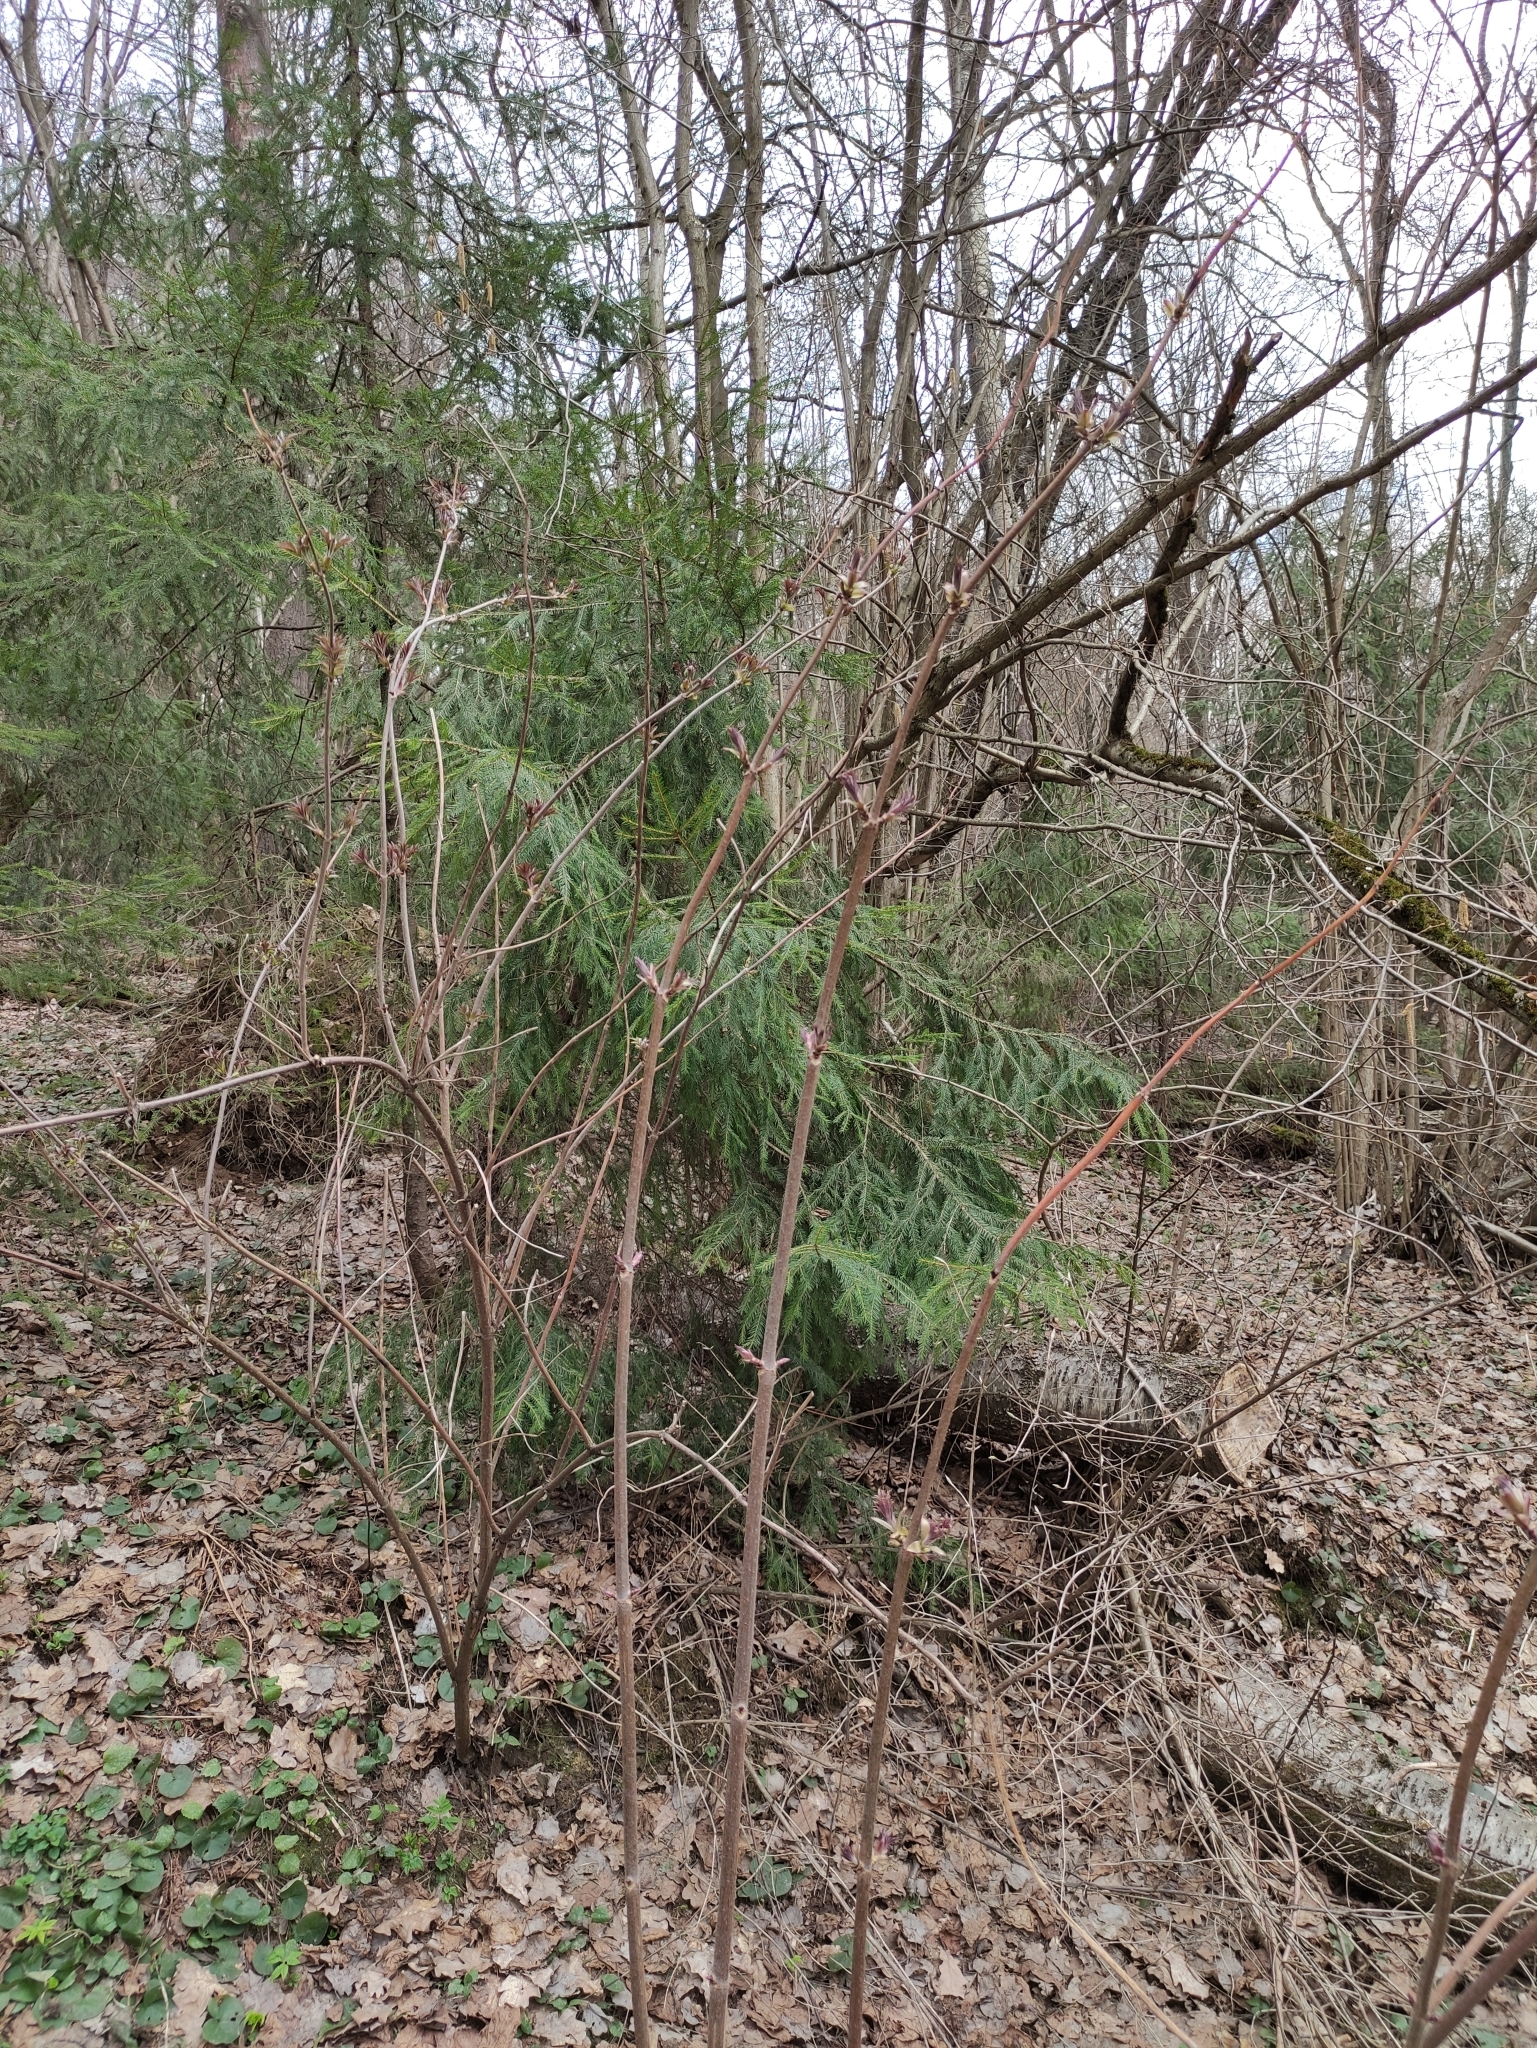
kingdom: Plantae
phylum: Tracheophyta
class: Magnoliopsida
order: Dipsacales
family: Viburnaceae
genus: Sambucus
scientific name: Sambucus racemosa
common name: Red-berried elder
